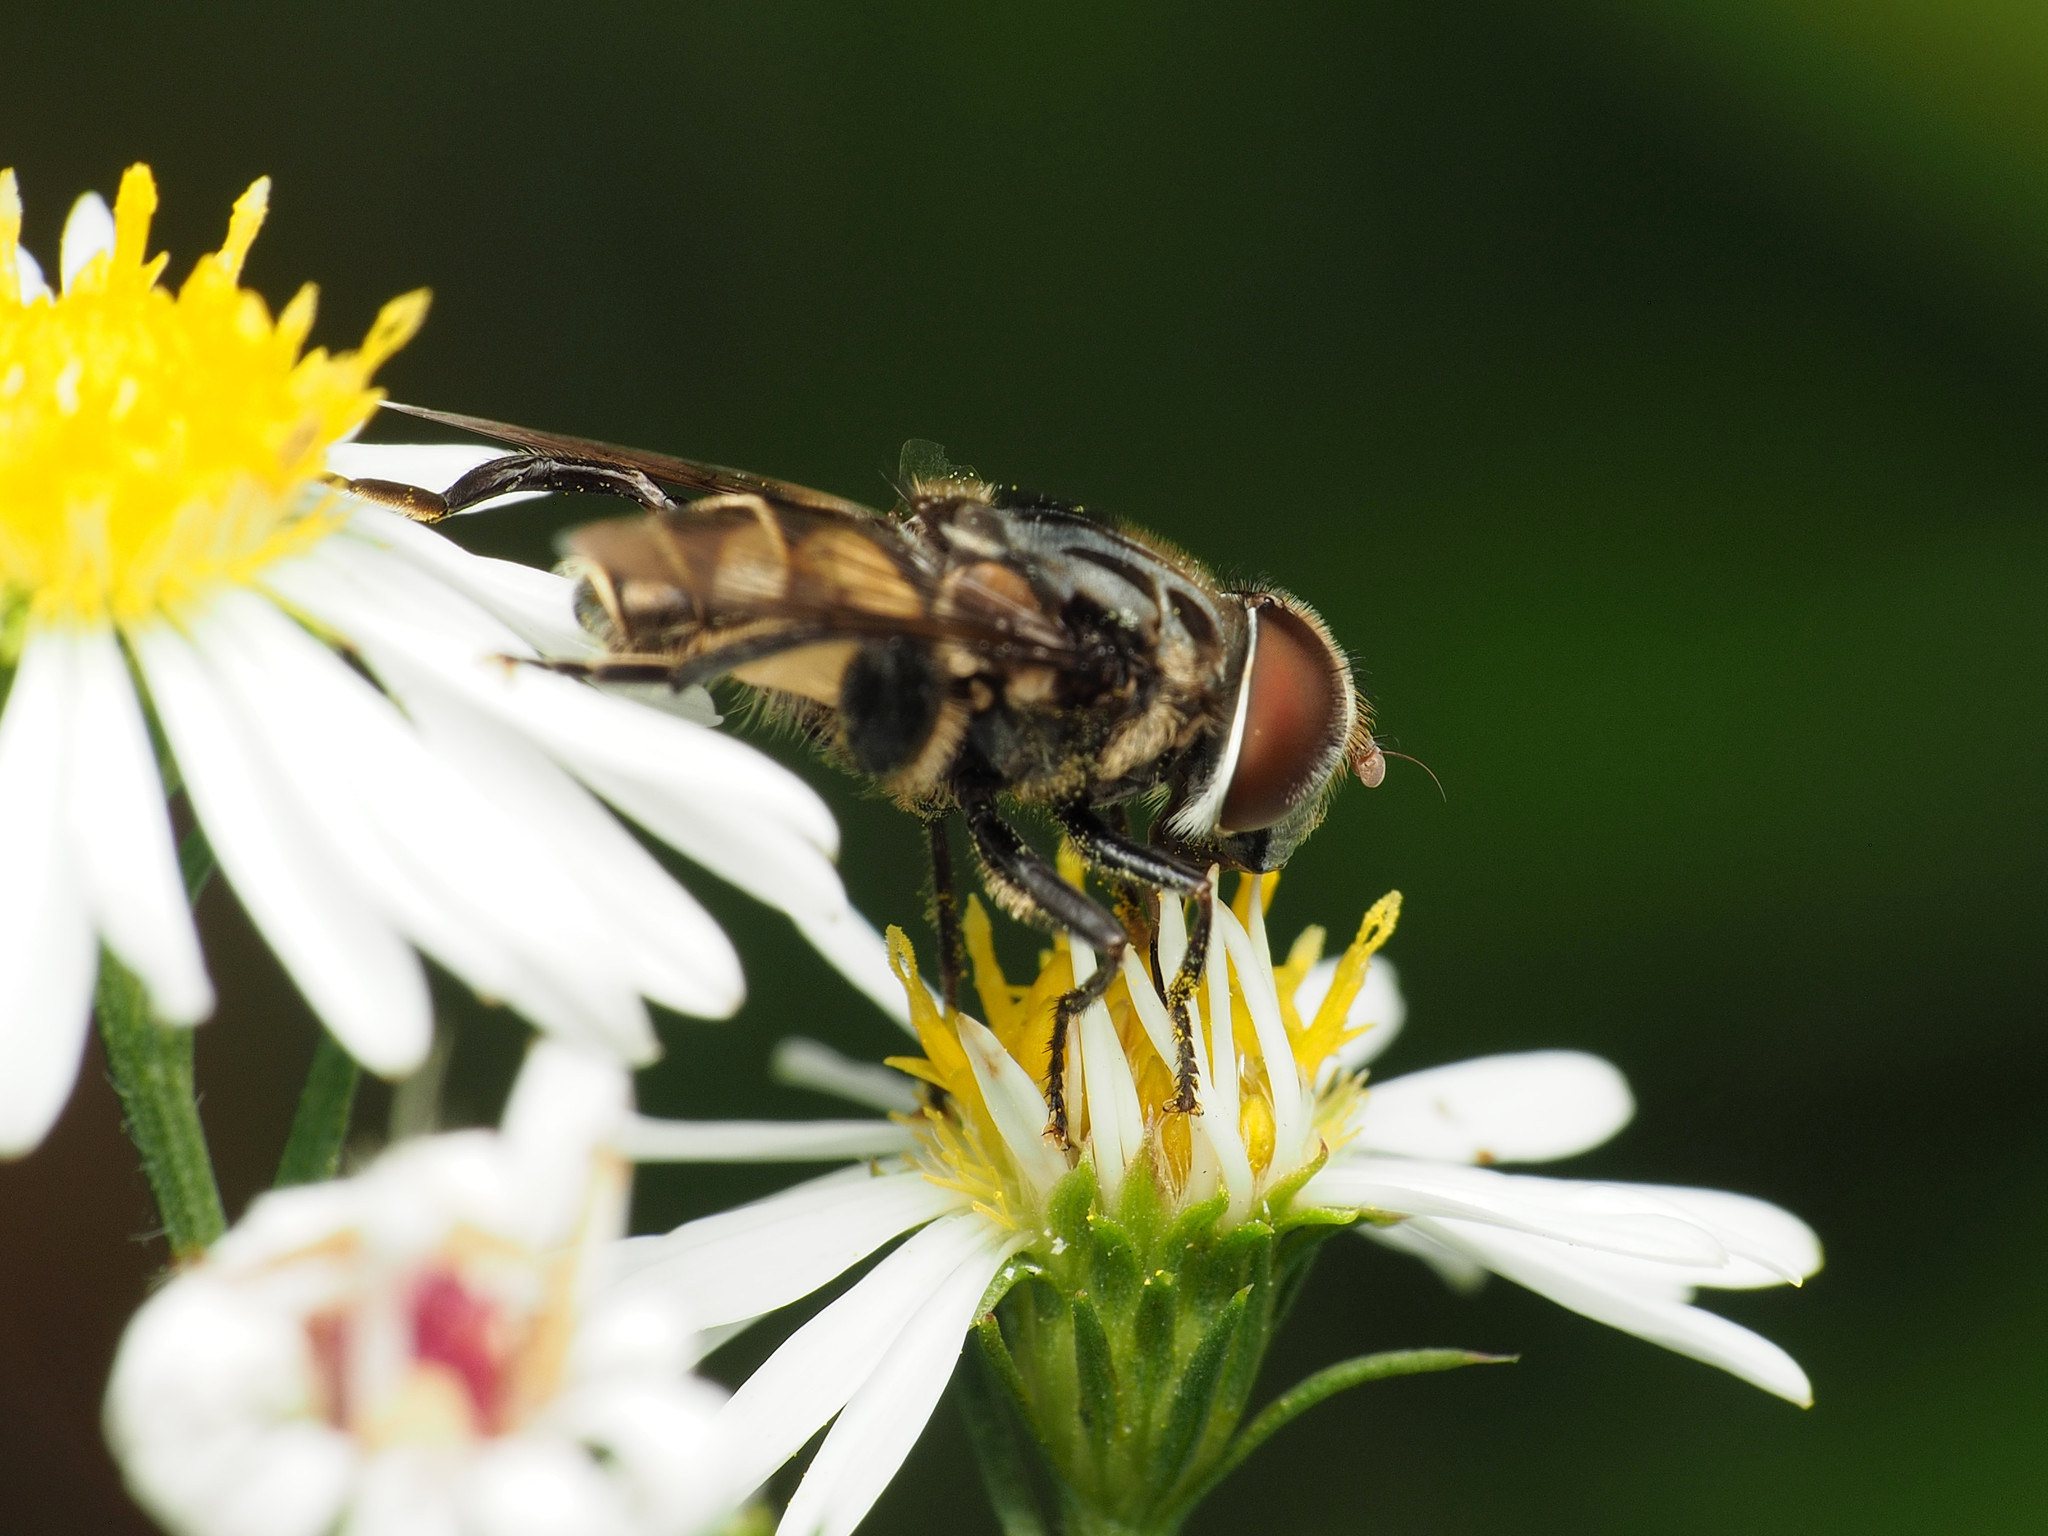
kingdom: Animalia
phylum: Arthropoda
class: Insecta
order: Diptera
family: Syrphidae
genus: Palpada
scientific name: Palpada furcata
